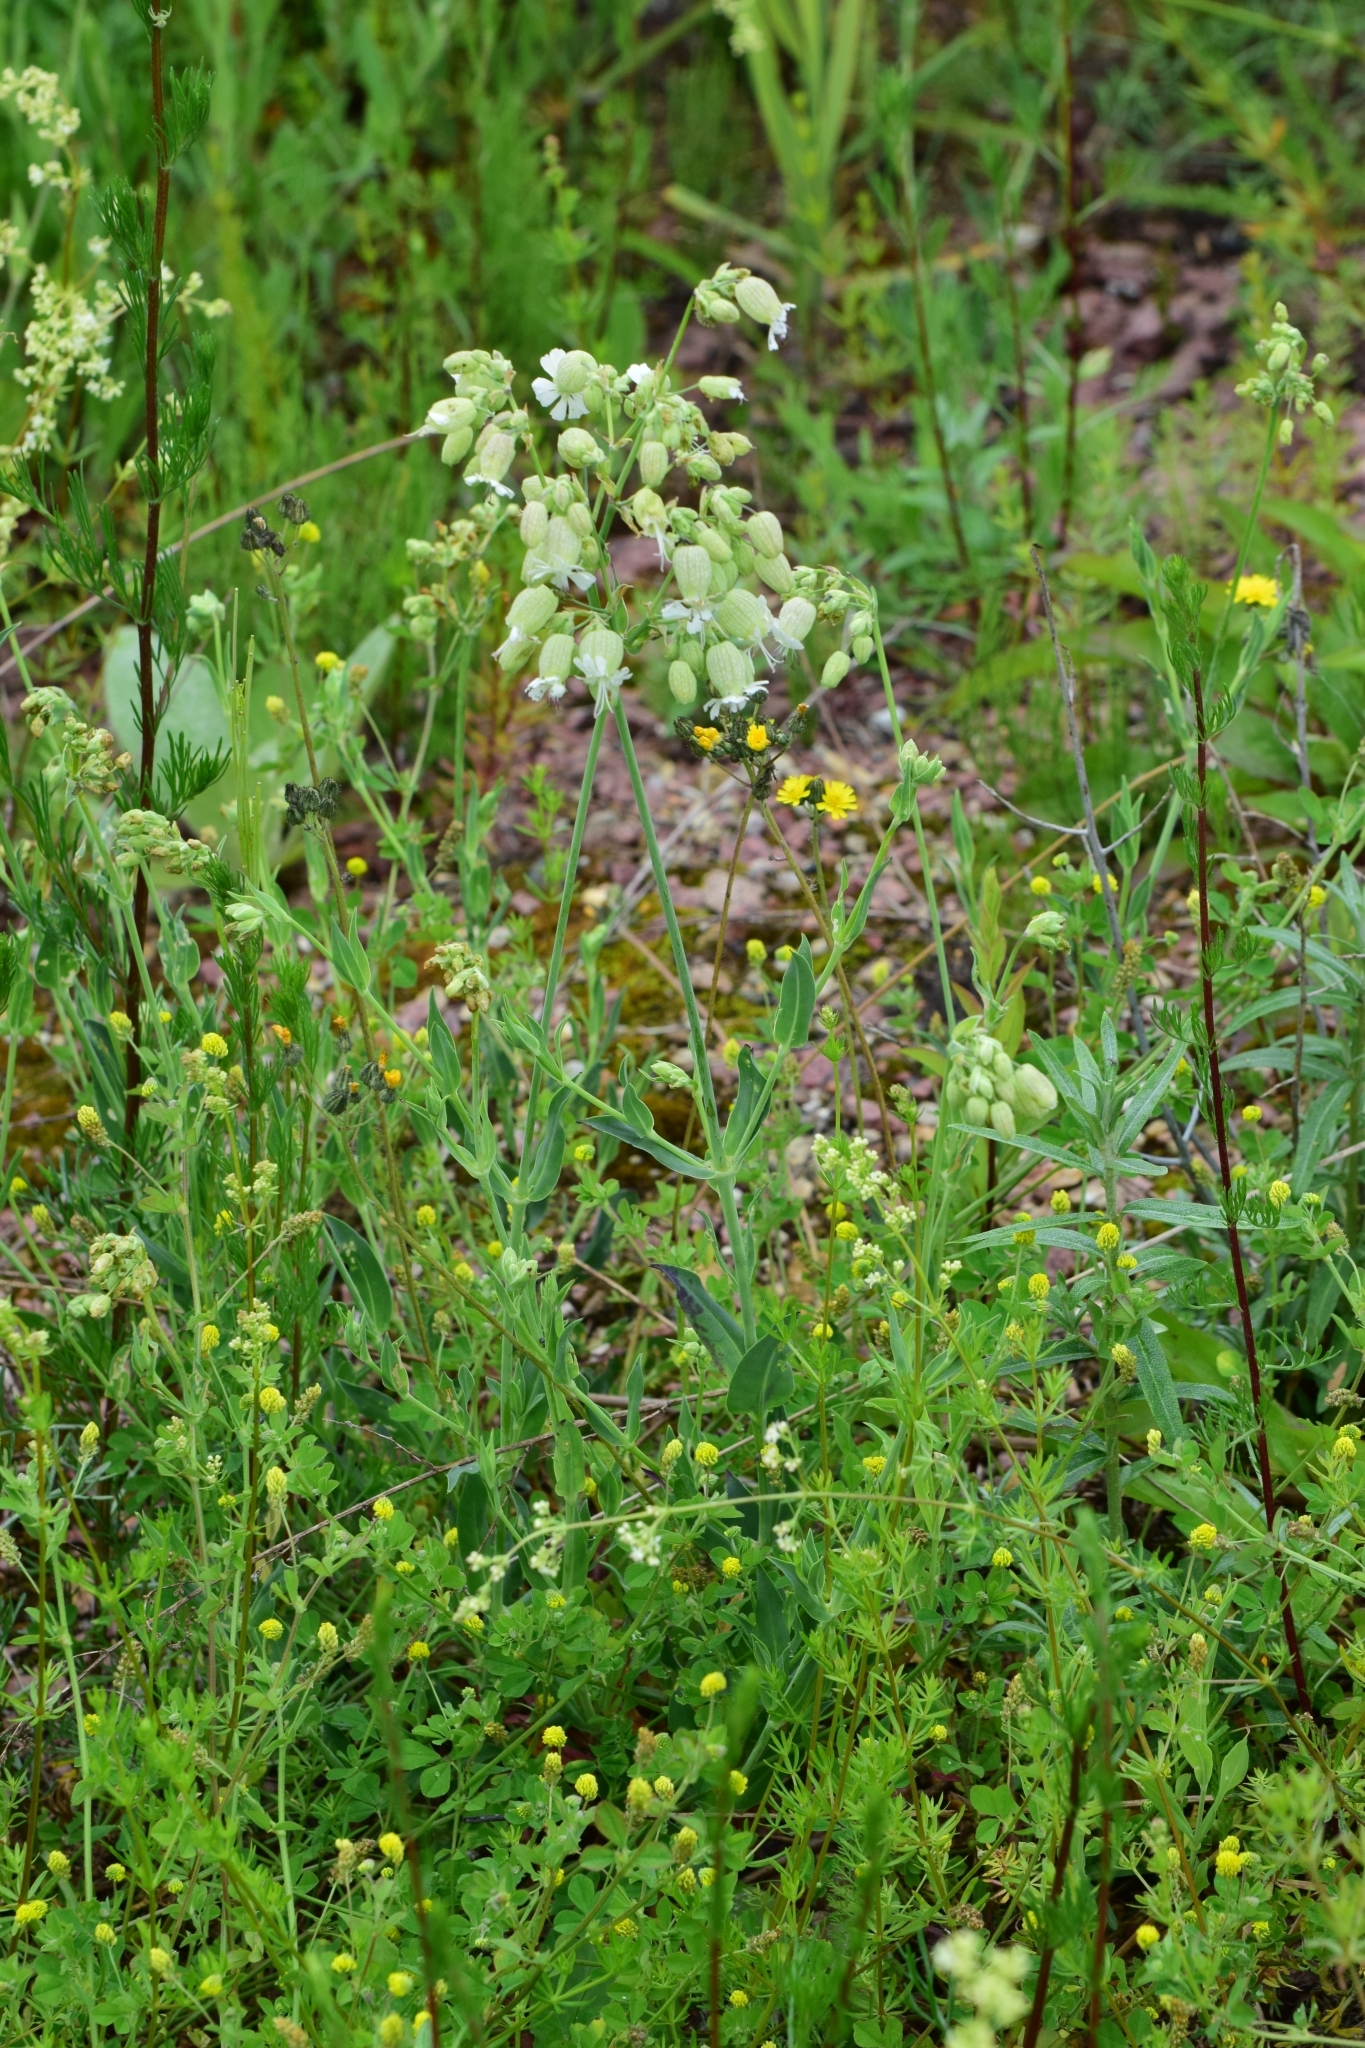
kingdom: Plantae
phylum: Tracheophyta
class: Magnoliopsida
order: Caryophyllales
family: Caryophyllaceae
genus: Silene
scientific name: Silene vulgaris
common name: Bladder campion
